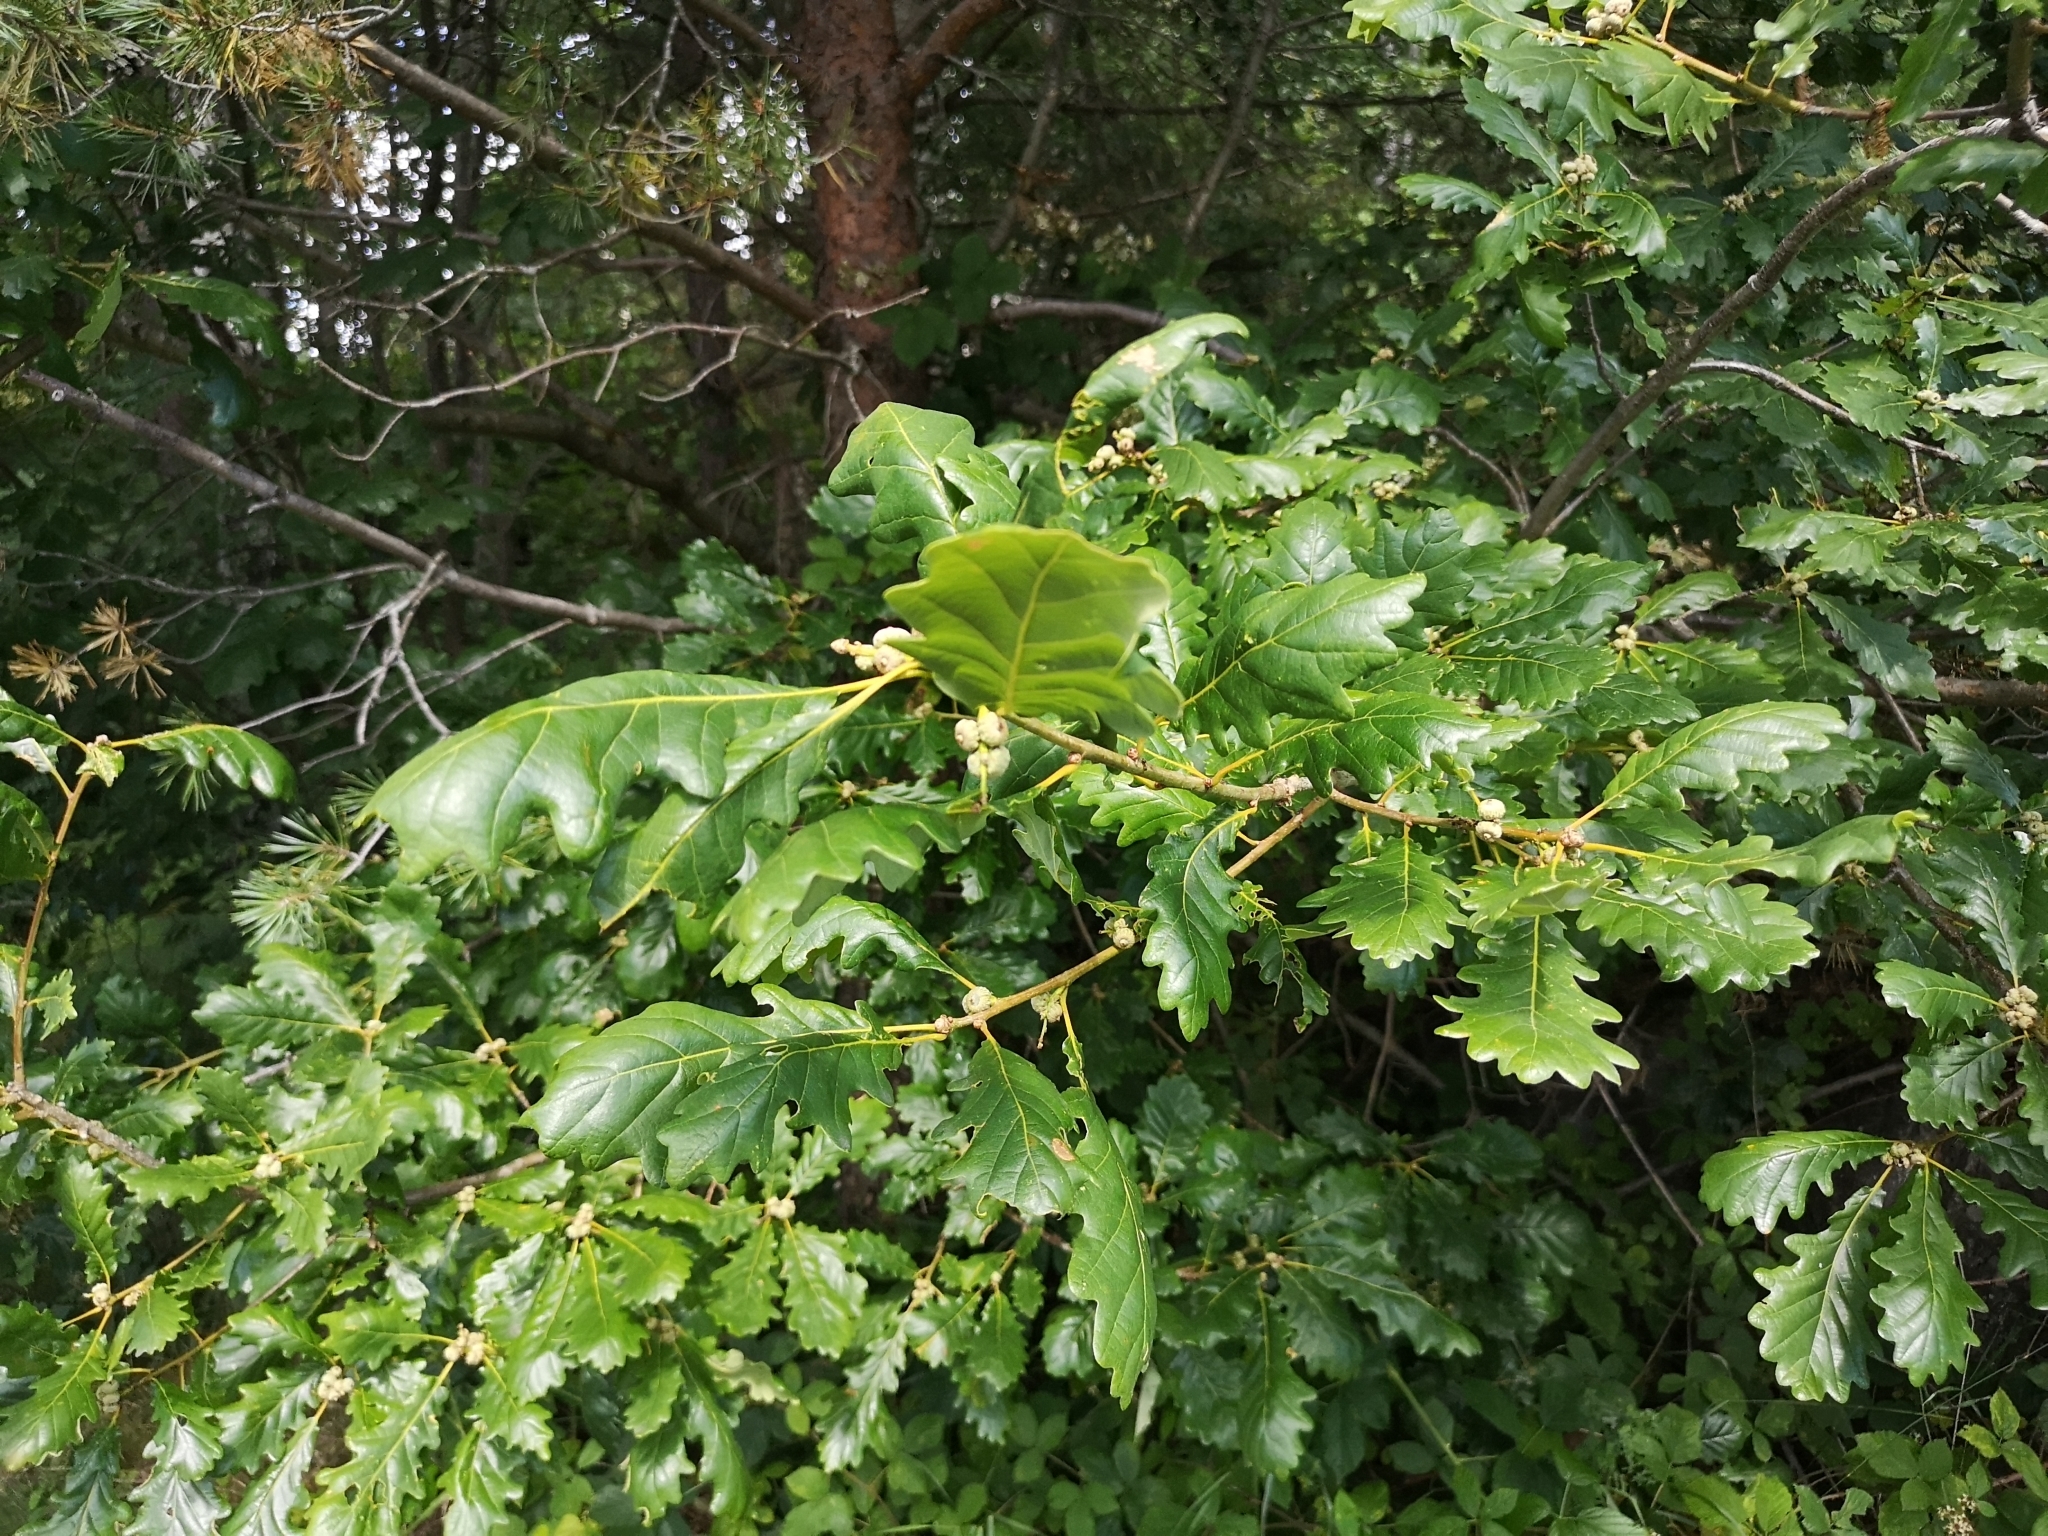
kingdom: Plantae
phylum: Tracheophyta
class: Magnoliopsida
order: Fagales
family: Fagaceae
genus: Quercus
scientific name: Quercus petraea
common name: Sessile oak
